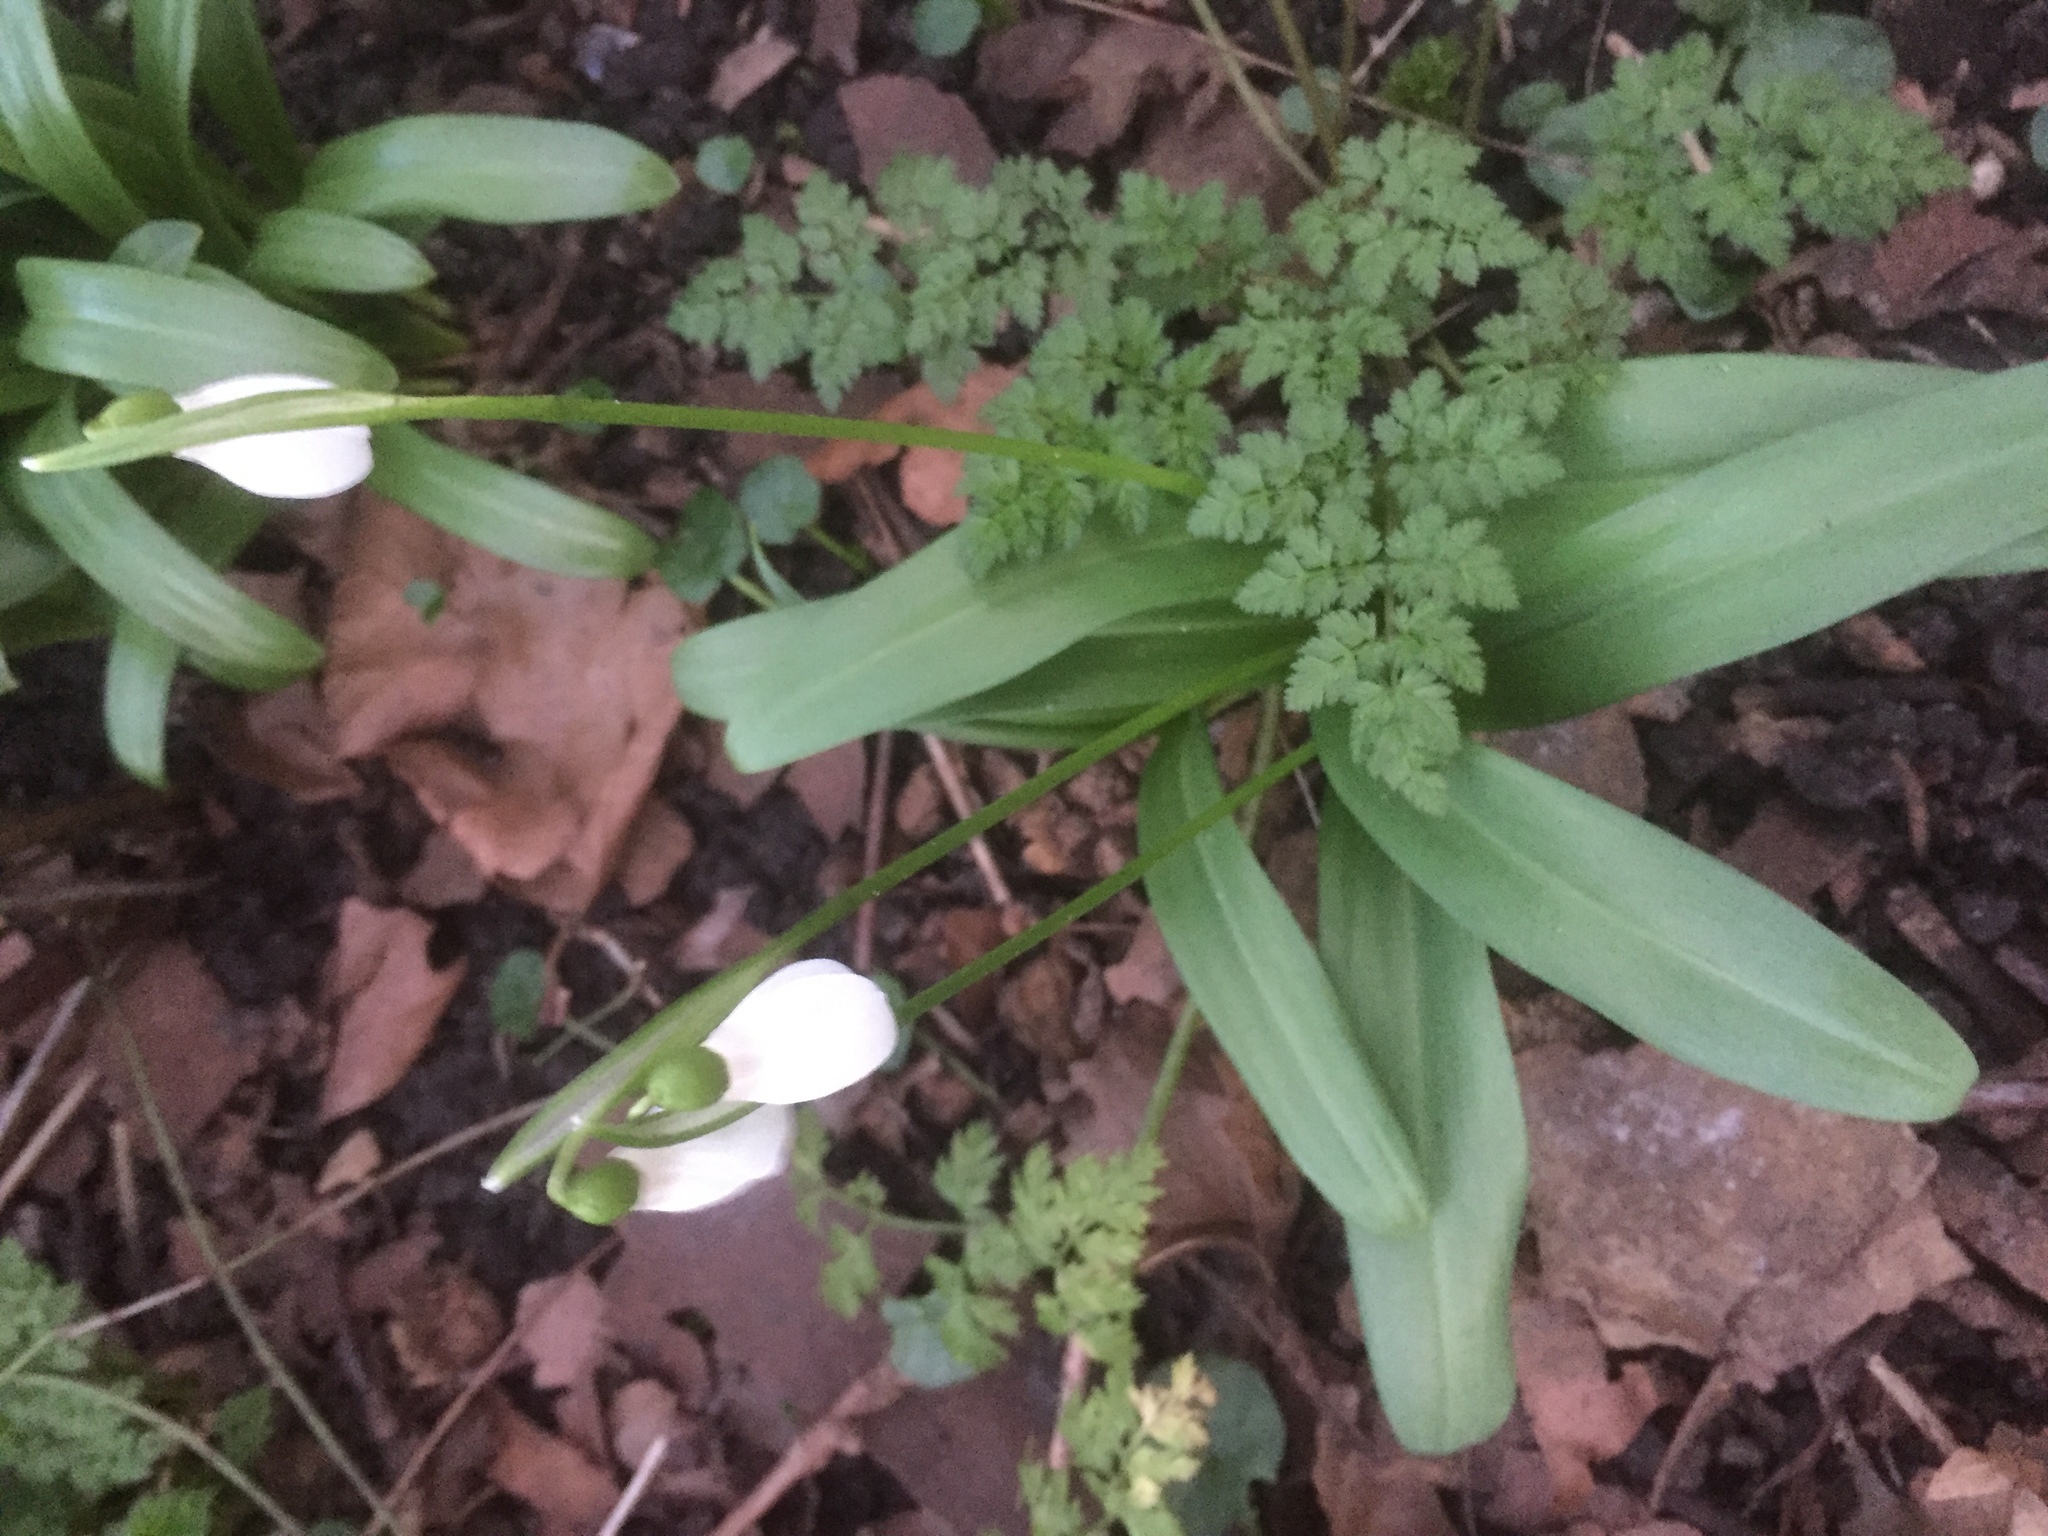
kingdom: Plantae
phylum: Tracheophyta
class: Liliopsida
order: Asparagales
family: Amaryllidaceae
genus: Galanthus
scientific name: Galanthus woronowii
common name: Green snowdrop
